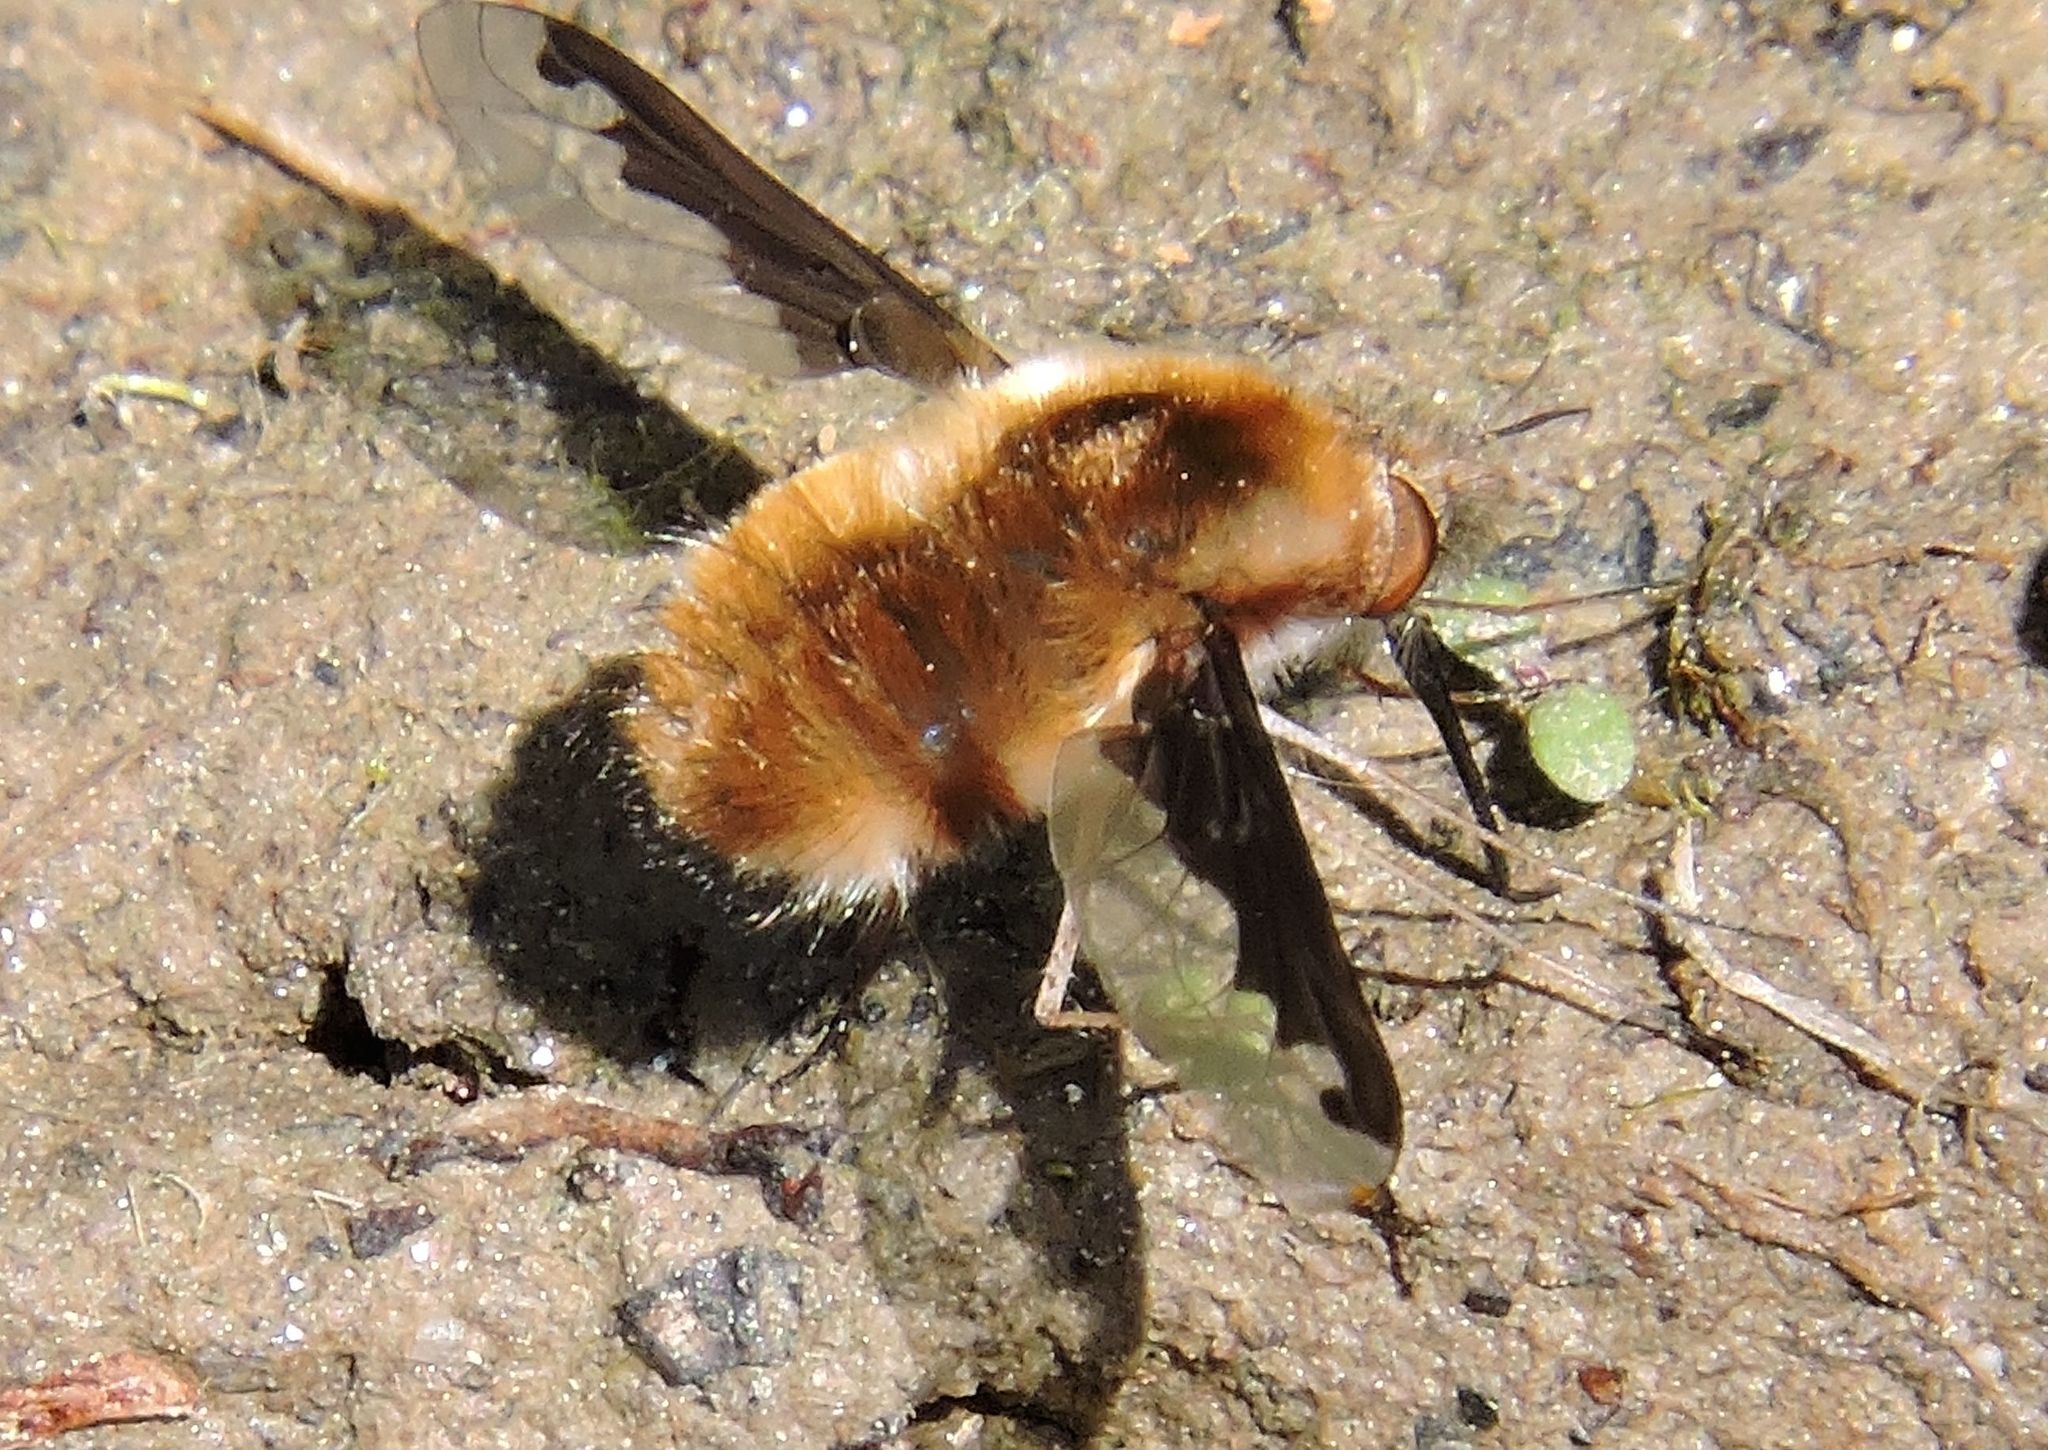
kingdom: Animalia
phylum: Arthropoda
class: Insecta
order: Diptera
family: Bombyliidae
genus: Bombylius
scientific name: Bombylius major
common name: Bee fly
